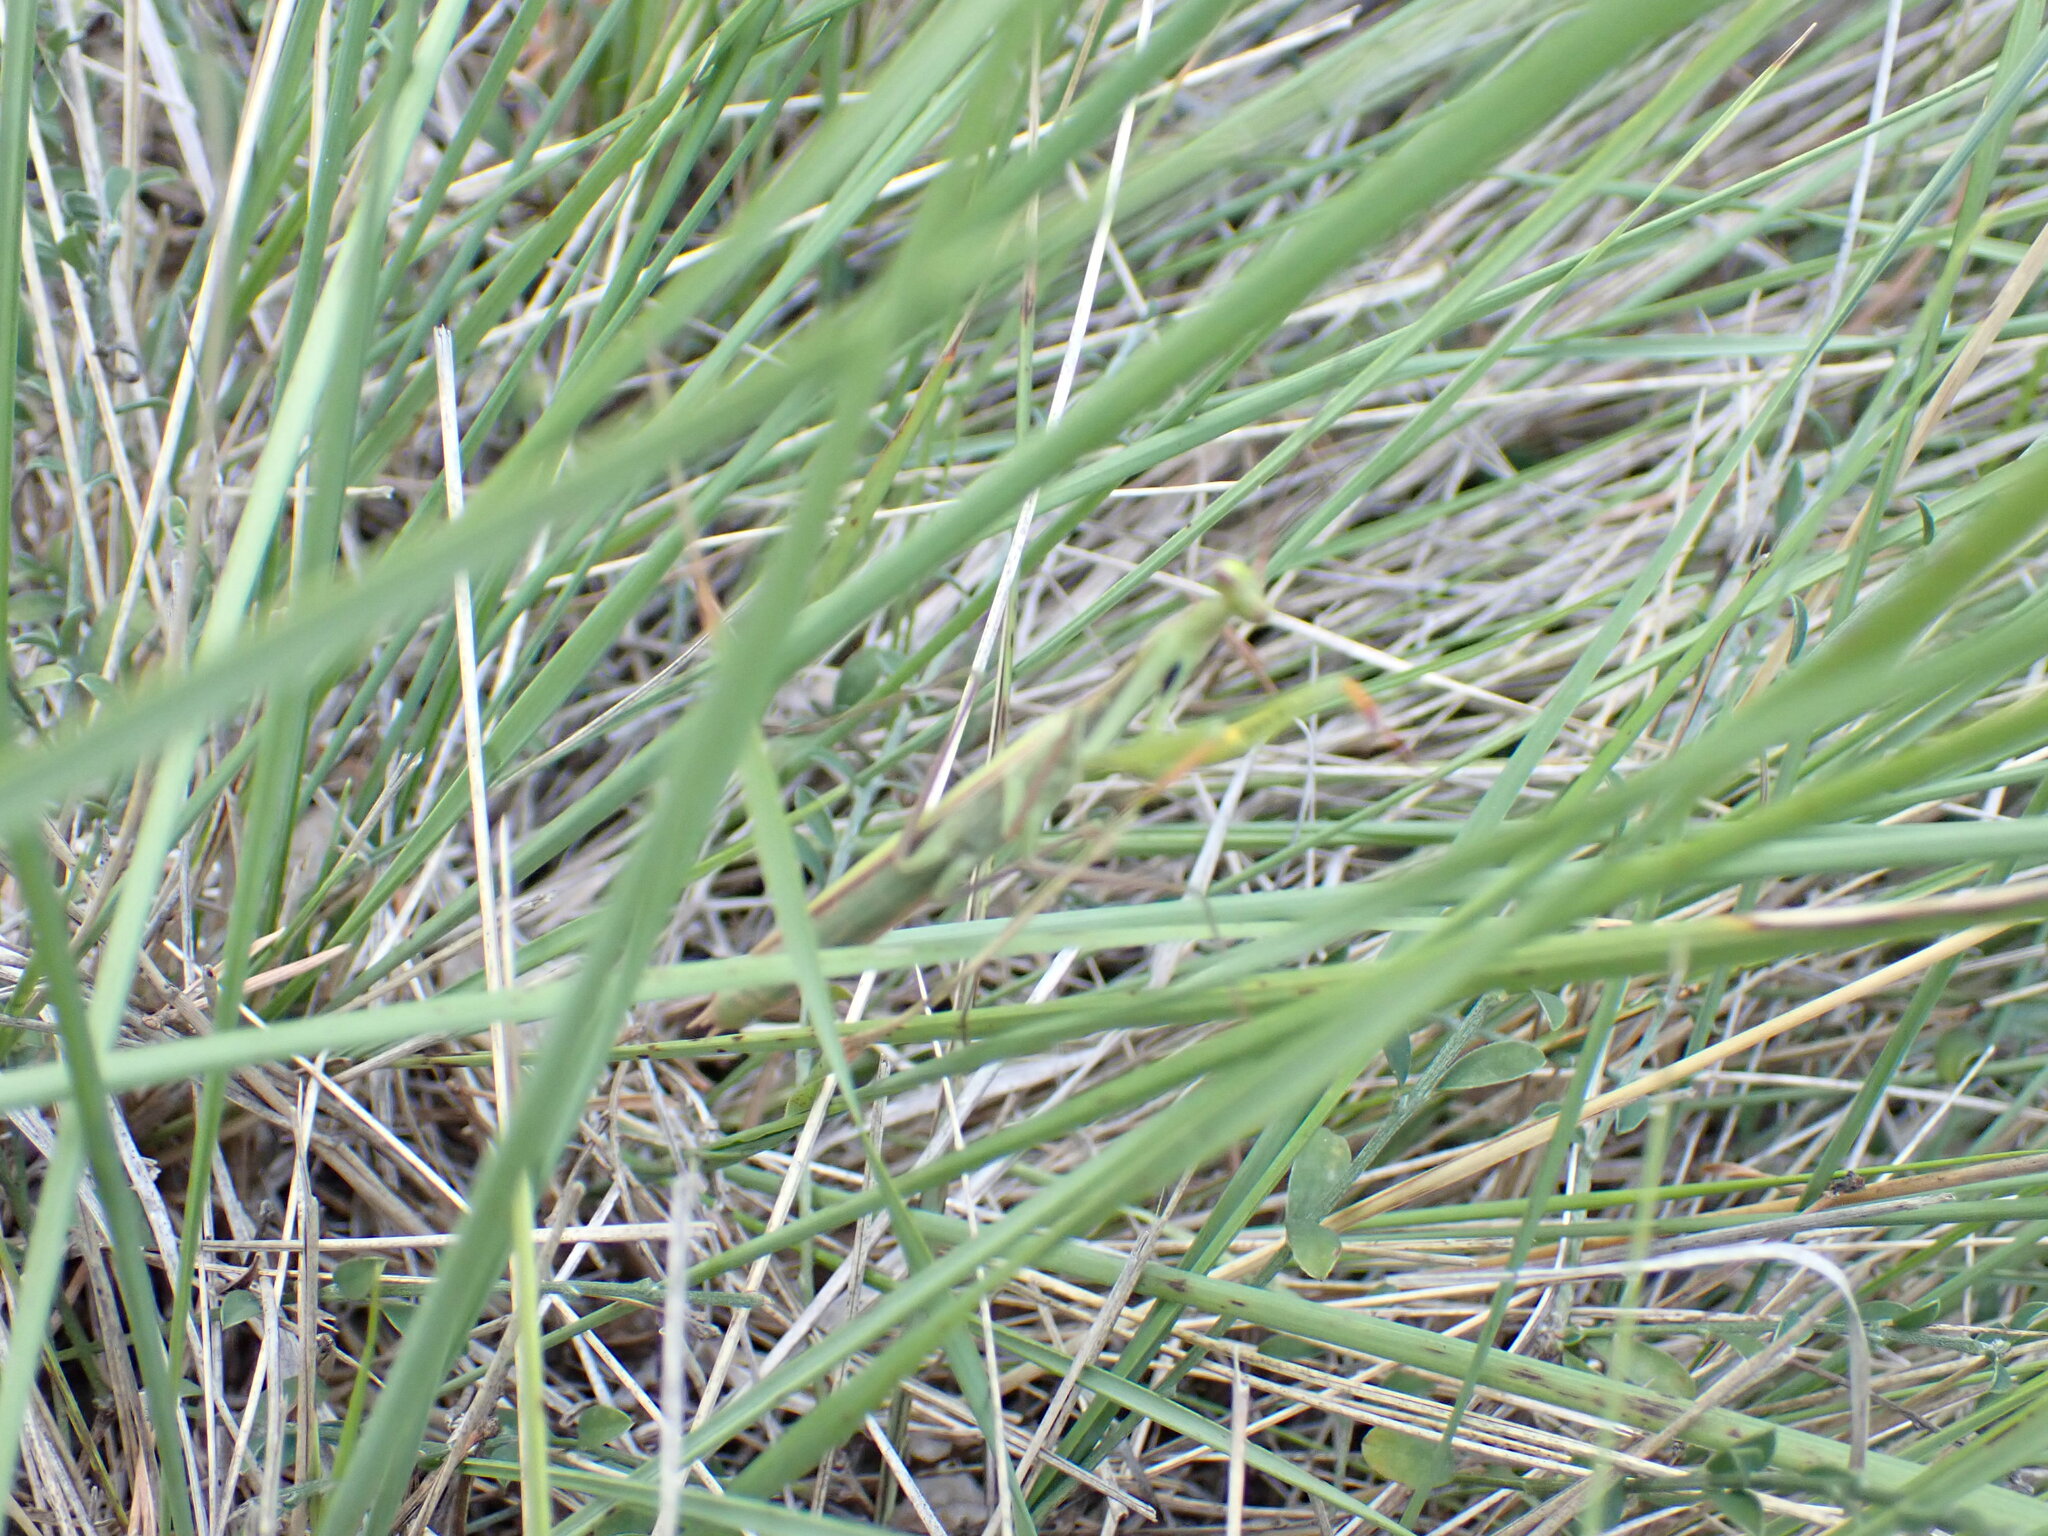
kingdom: Animalia
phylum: Arthropoda
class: Insecta
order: Mantodea
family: Mantidae
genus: Mantis
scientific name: Mantis religiosa
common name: Praying mantis
